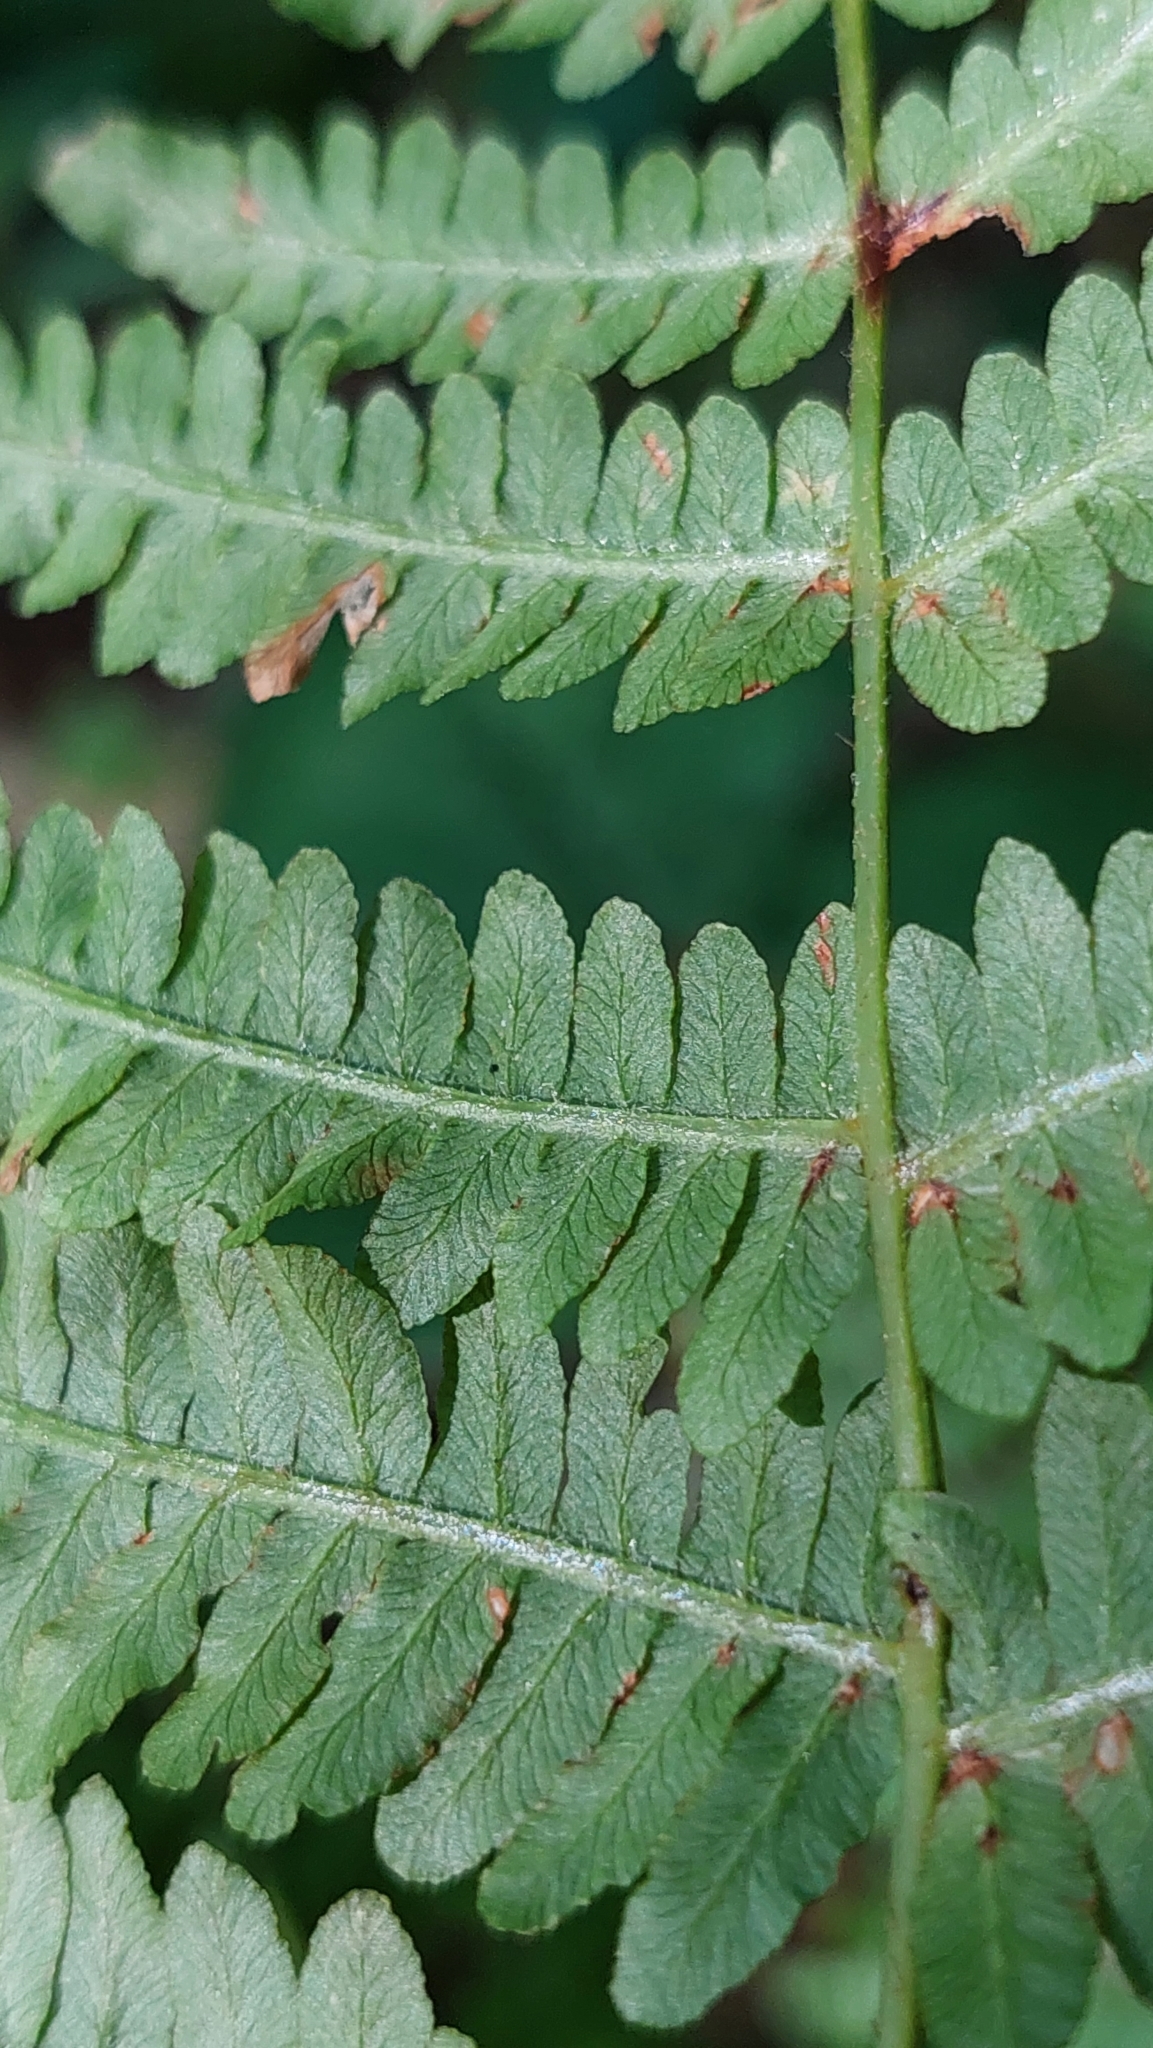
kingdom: Plantae
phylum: Tracheophyta
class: Polypodiopsida
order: Polypodiales
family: Dennstaedtiaceae
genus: Pteridium
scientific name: Pteridium tauricum
